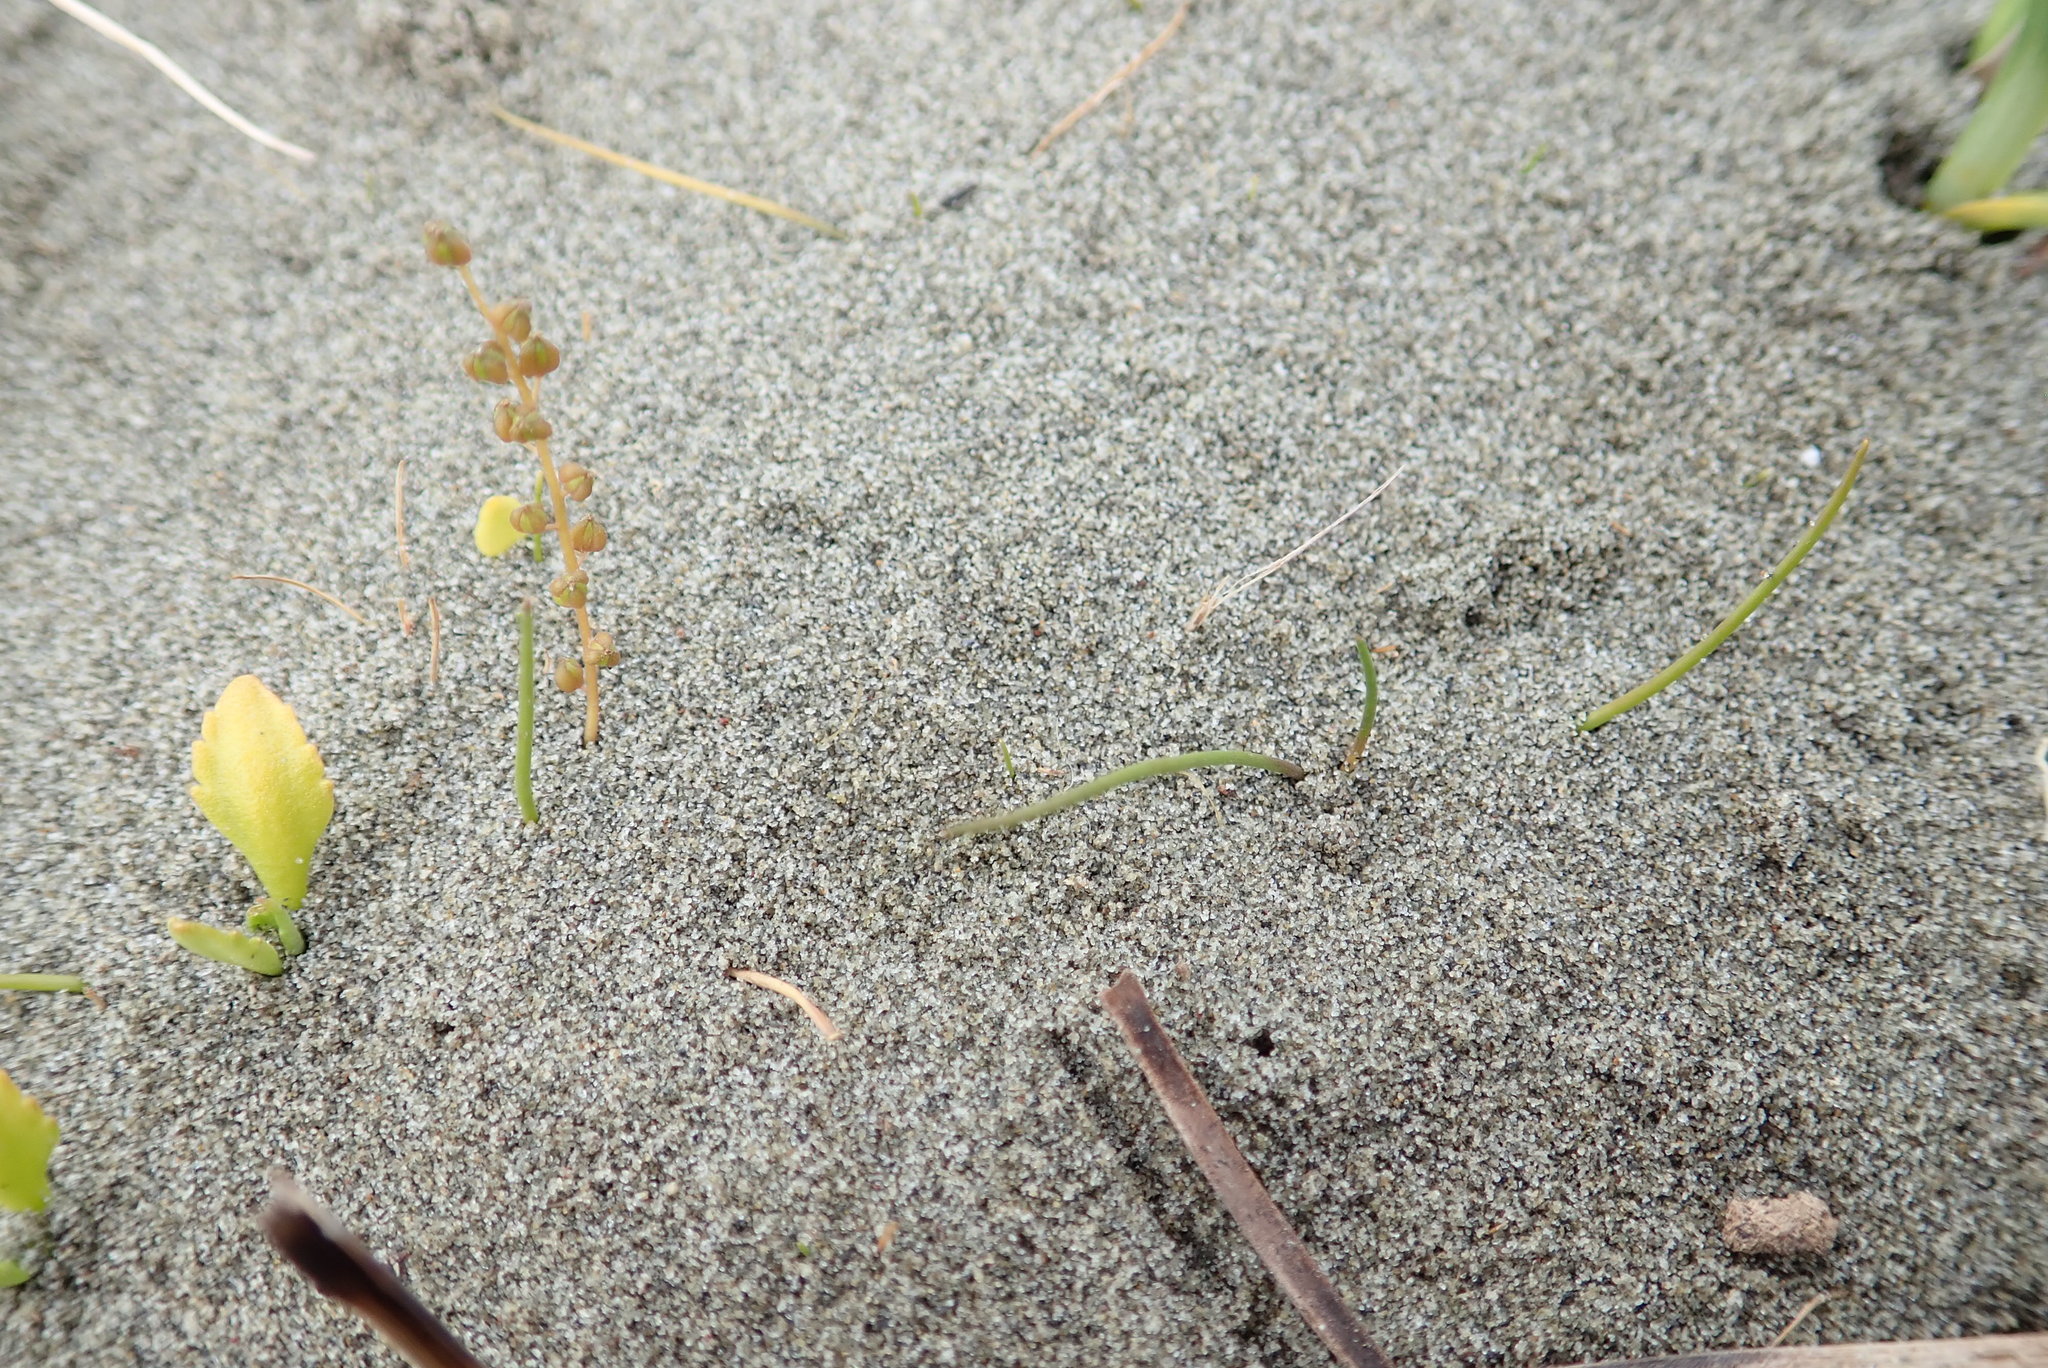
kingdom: Plantae
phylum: Tracheophyta
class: Liliopsida
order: Alismatales
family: Juncaginaceae
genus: Triglochin
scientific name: Triglochin striata
